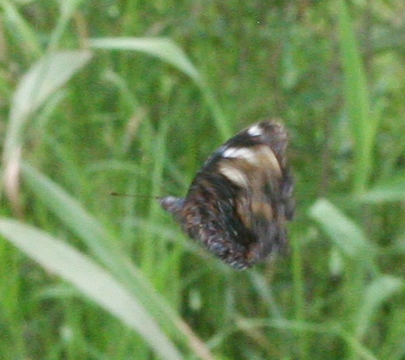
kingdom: Animalia
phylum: Arthropoda
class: Insecta
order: Lepidoptera
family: Nymphalidae
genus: Vanessa
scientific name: Vanessa Kaniska canace
